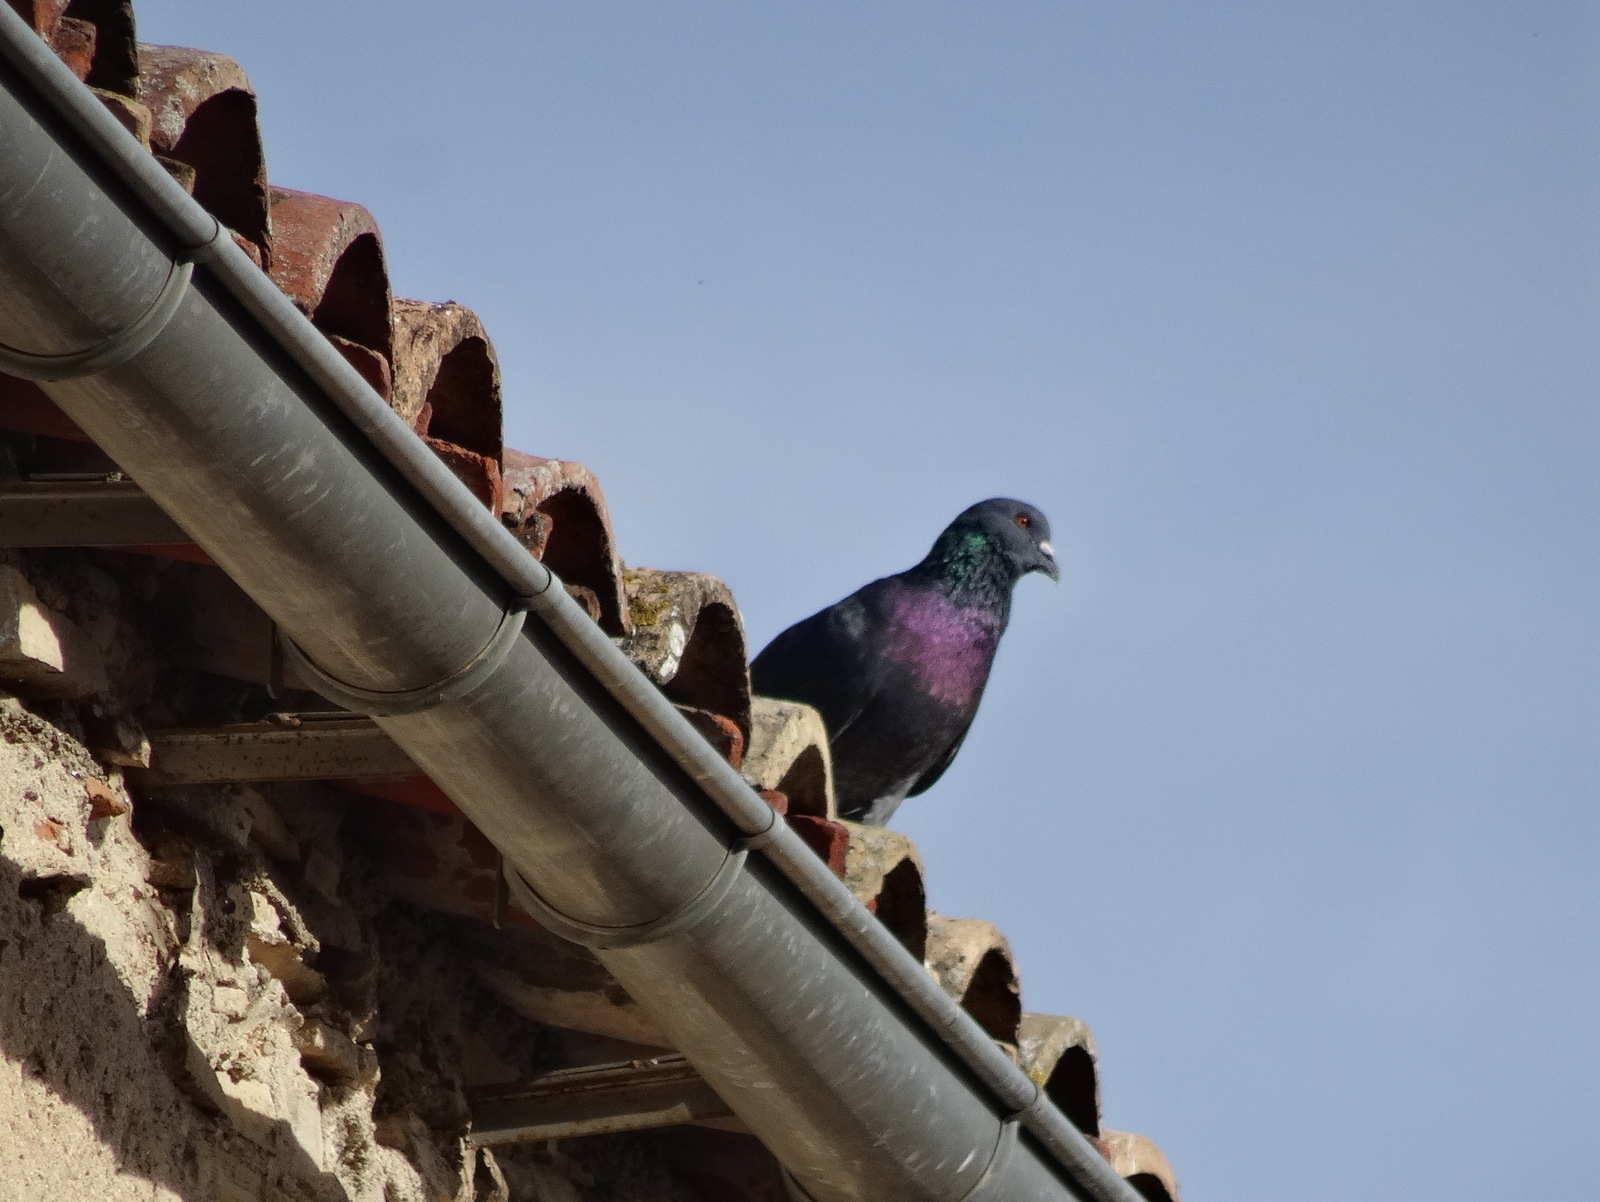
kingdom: Animalia
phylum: Chordata
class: Aves
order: Columbiformes
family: Columbidae
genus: Columba
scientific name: Columba livia
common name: Rock pigeon
